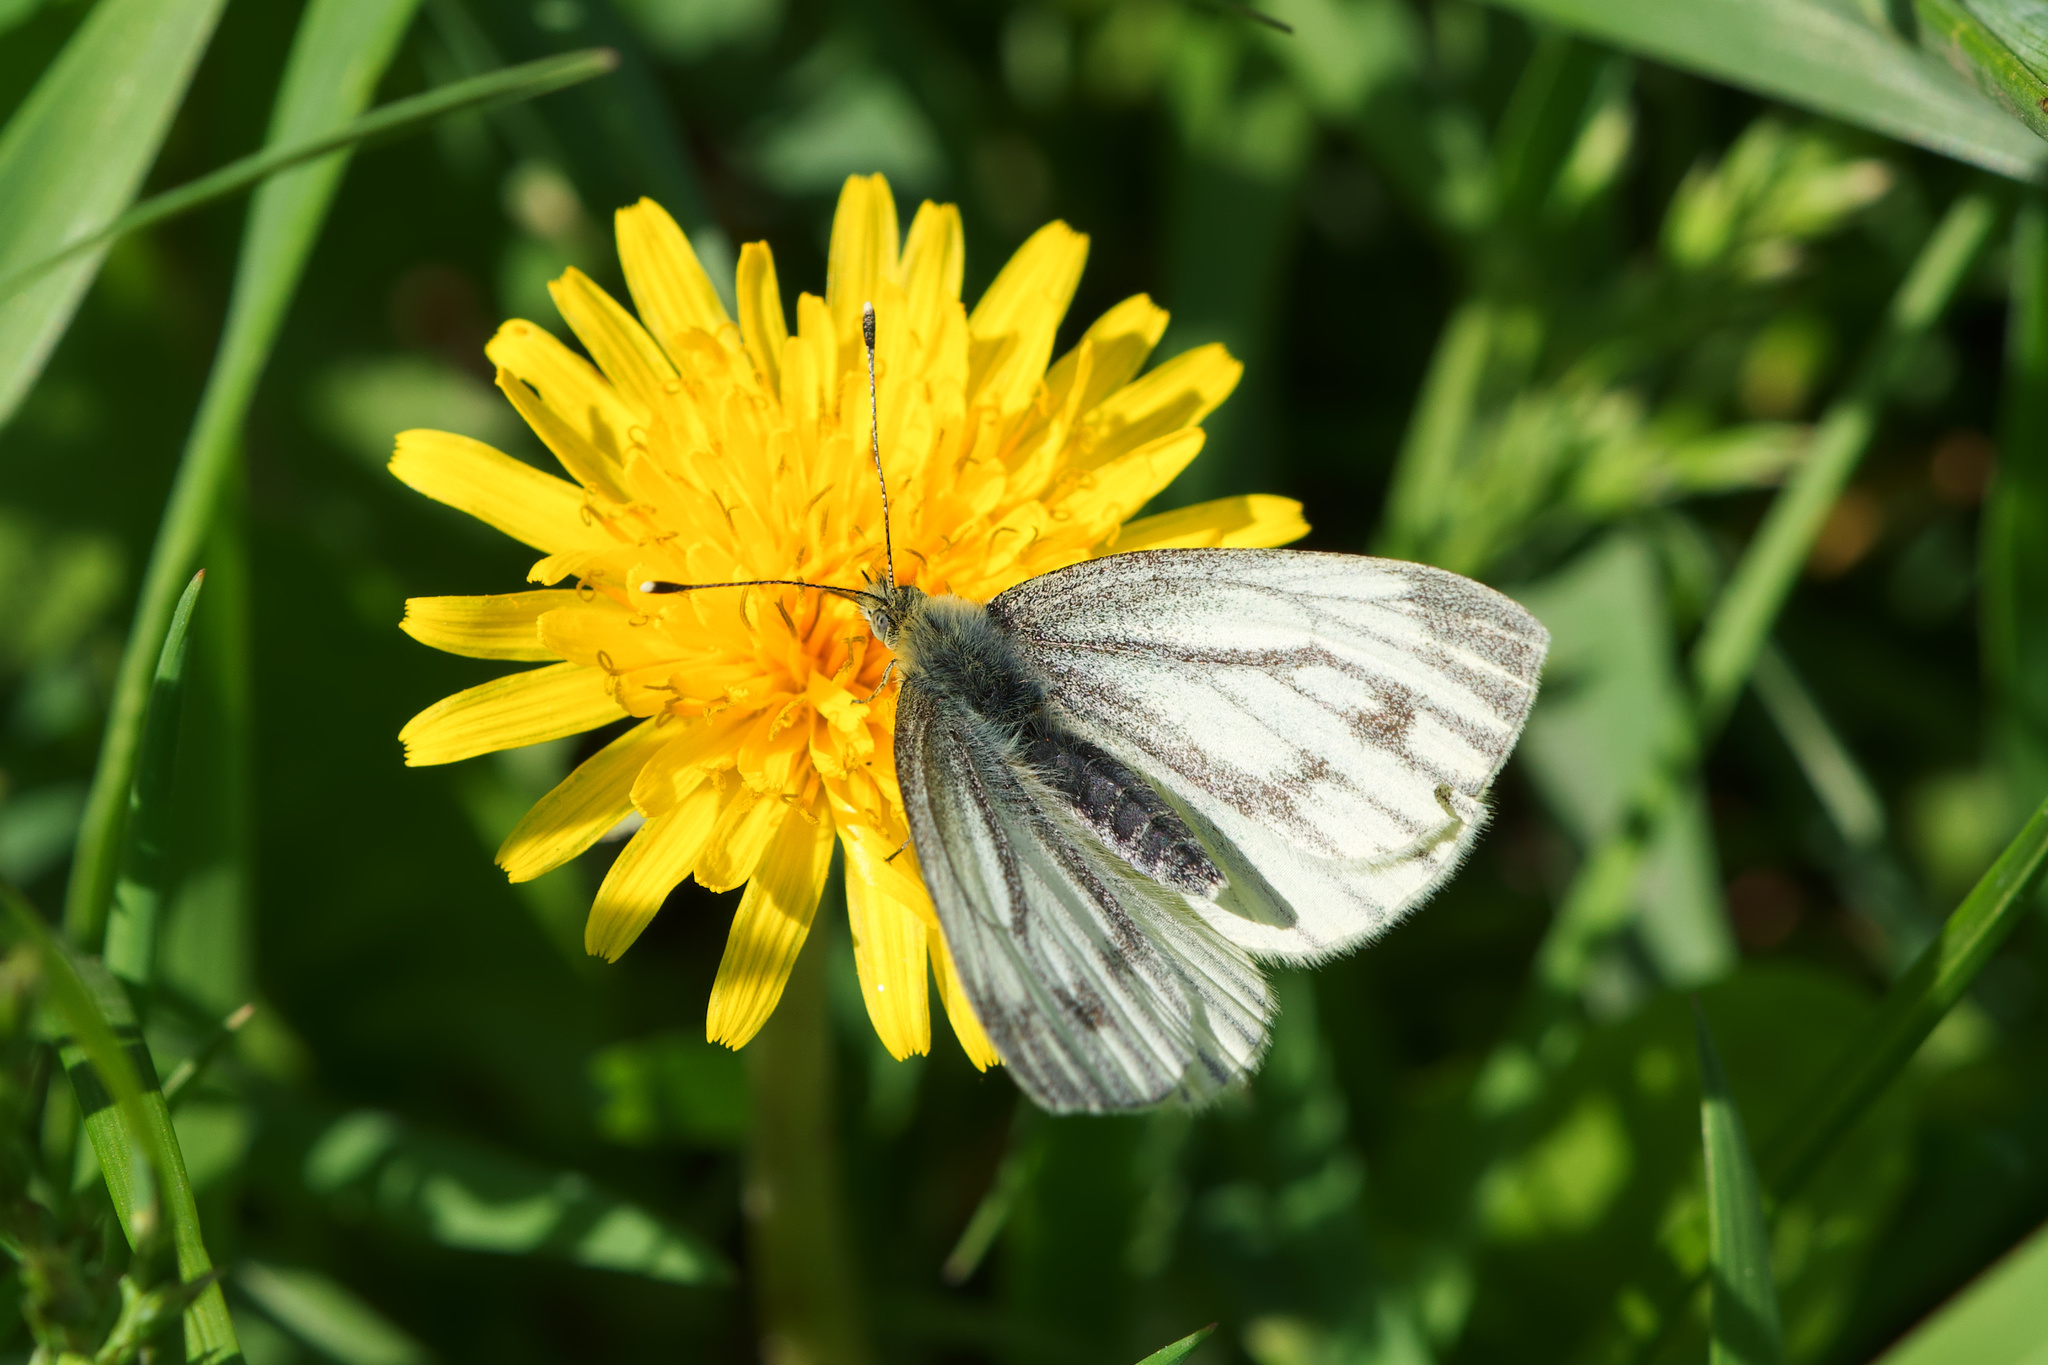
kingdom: Animalia
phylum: Arthropoda
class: Insecta
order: Lepidoptera
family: Pieridae
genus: Pieris
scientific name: Pieris napi
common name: Green-veined white
